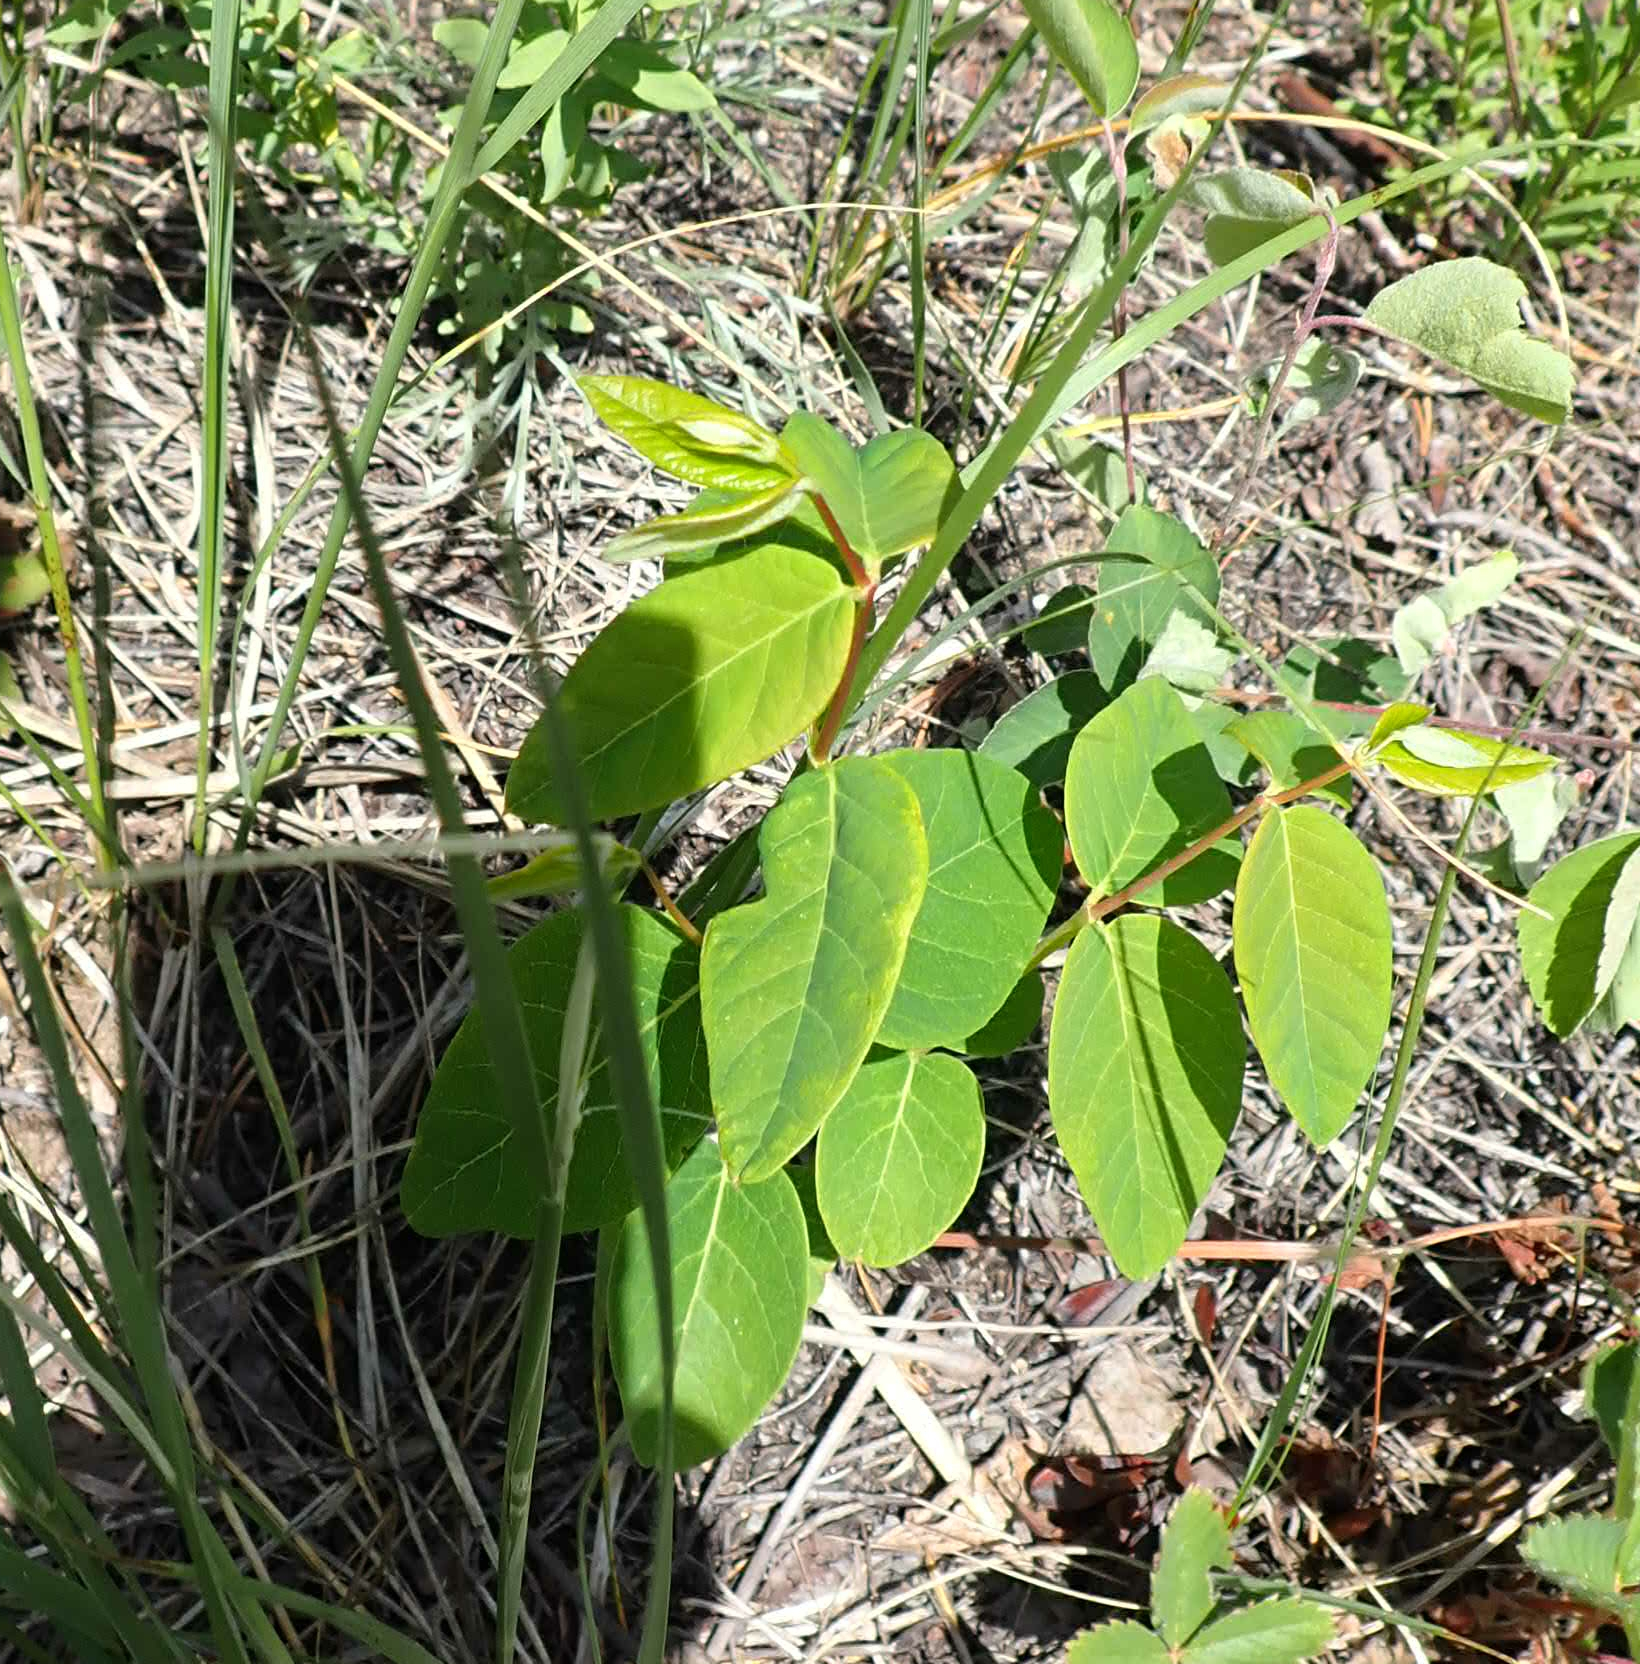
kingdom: Plantae
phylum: Tracheophyta
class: Magnoliopsida
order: Gentianales
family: Apocynaceae
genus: Apocynum
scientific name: Apocynum androsaemifolium
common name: Spreading dogbane
